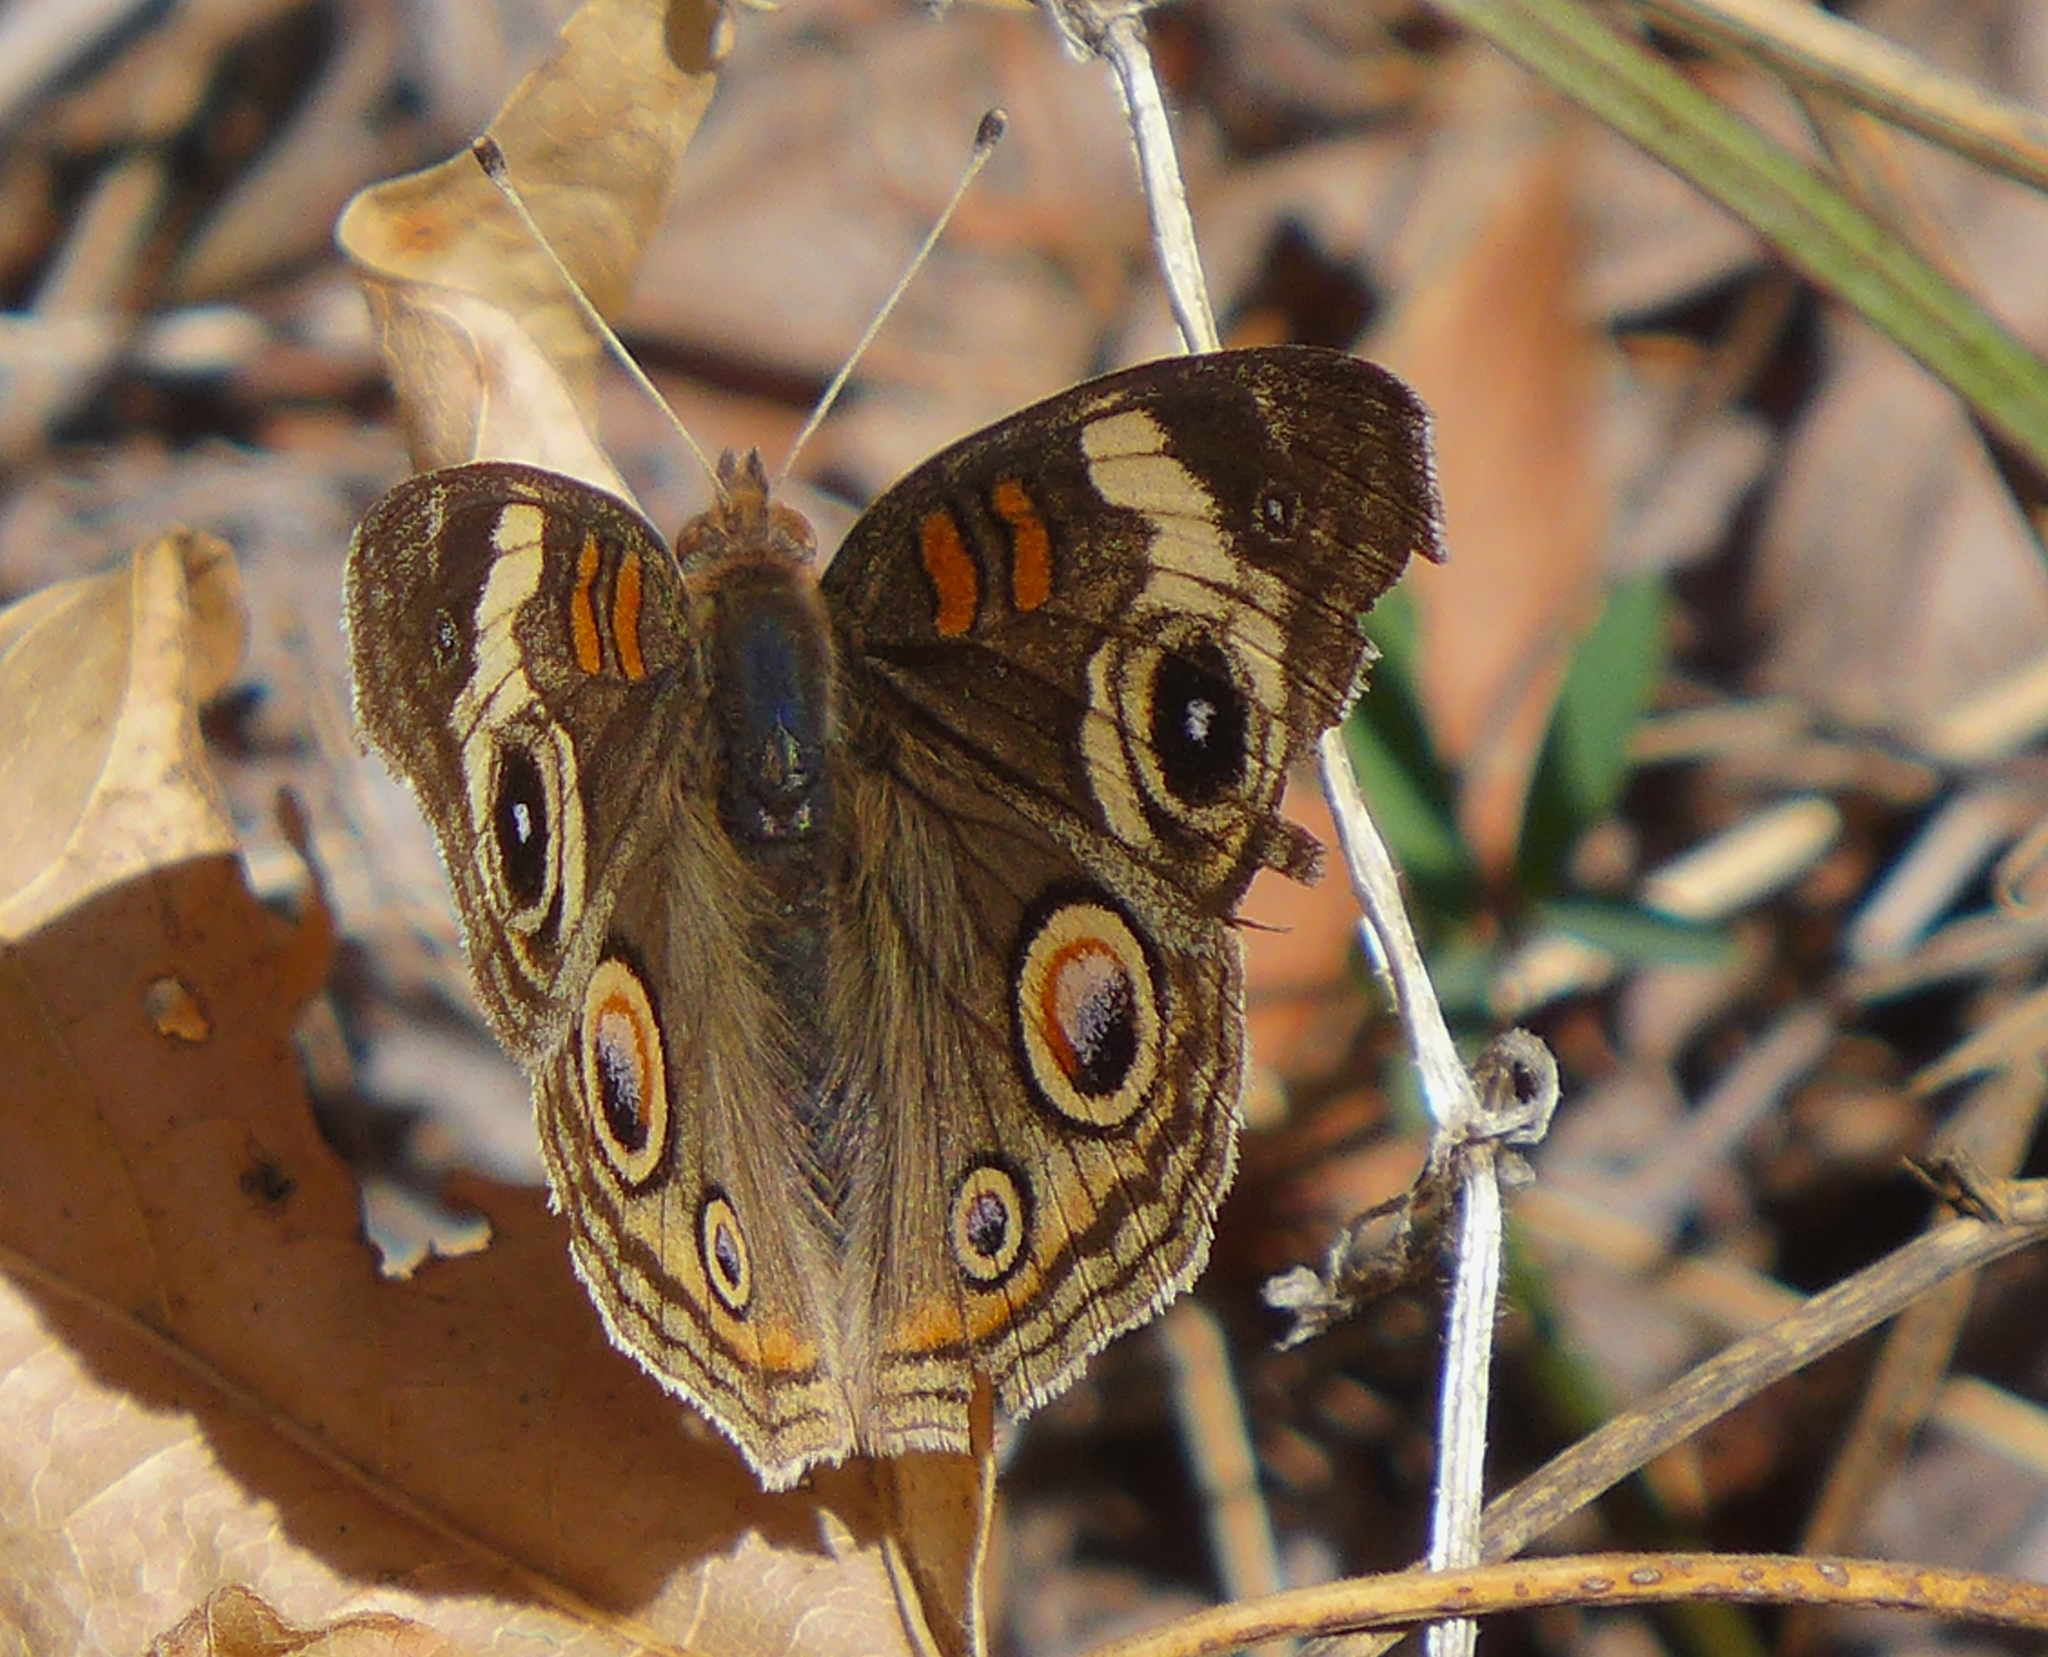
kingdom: Animalia
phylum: Arthropoda
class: Insecta
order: Lepidoptera
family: Nymphalidae
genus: Junonia
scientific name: Junonia grisea
